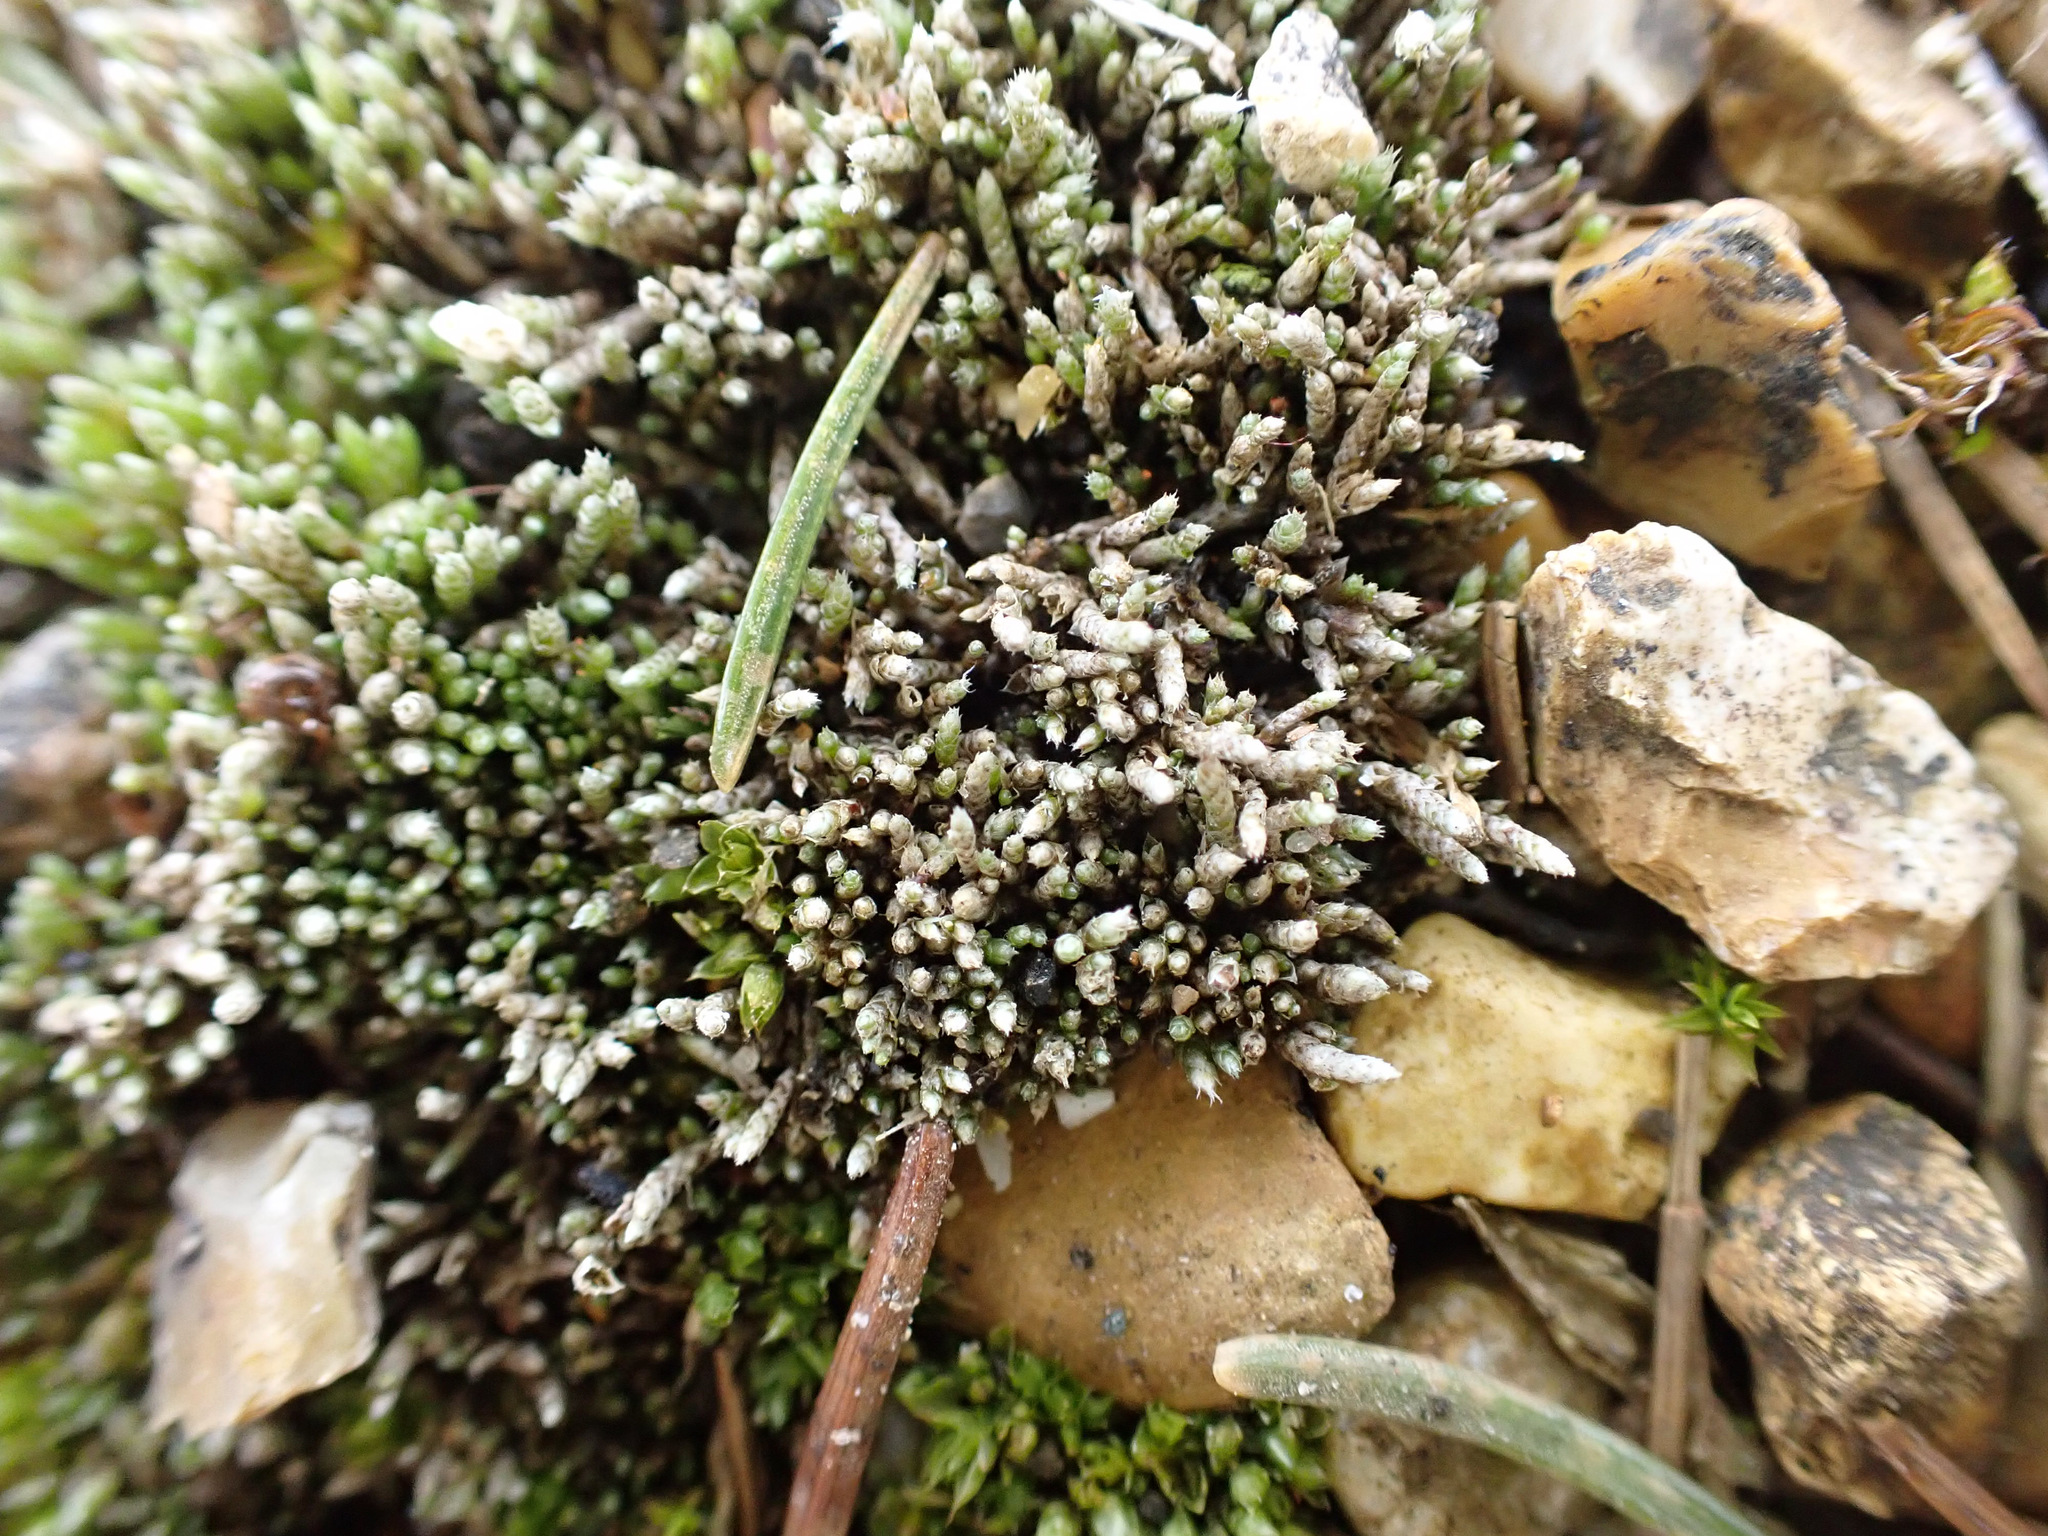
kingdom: Plantae
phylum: Bryophyta
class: Bryopsida
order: Bryales
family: Bryaceae
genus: Bryum
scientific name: Bryum argenteum
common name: Silver-moss
